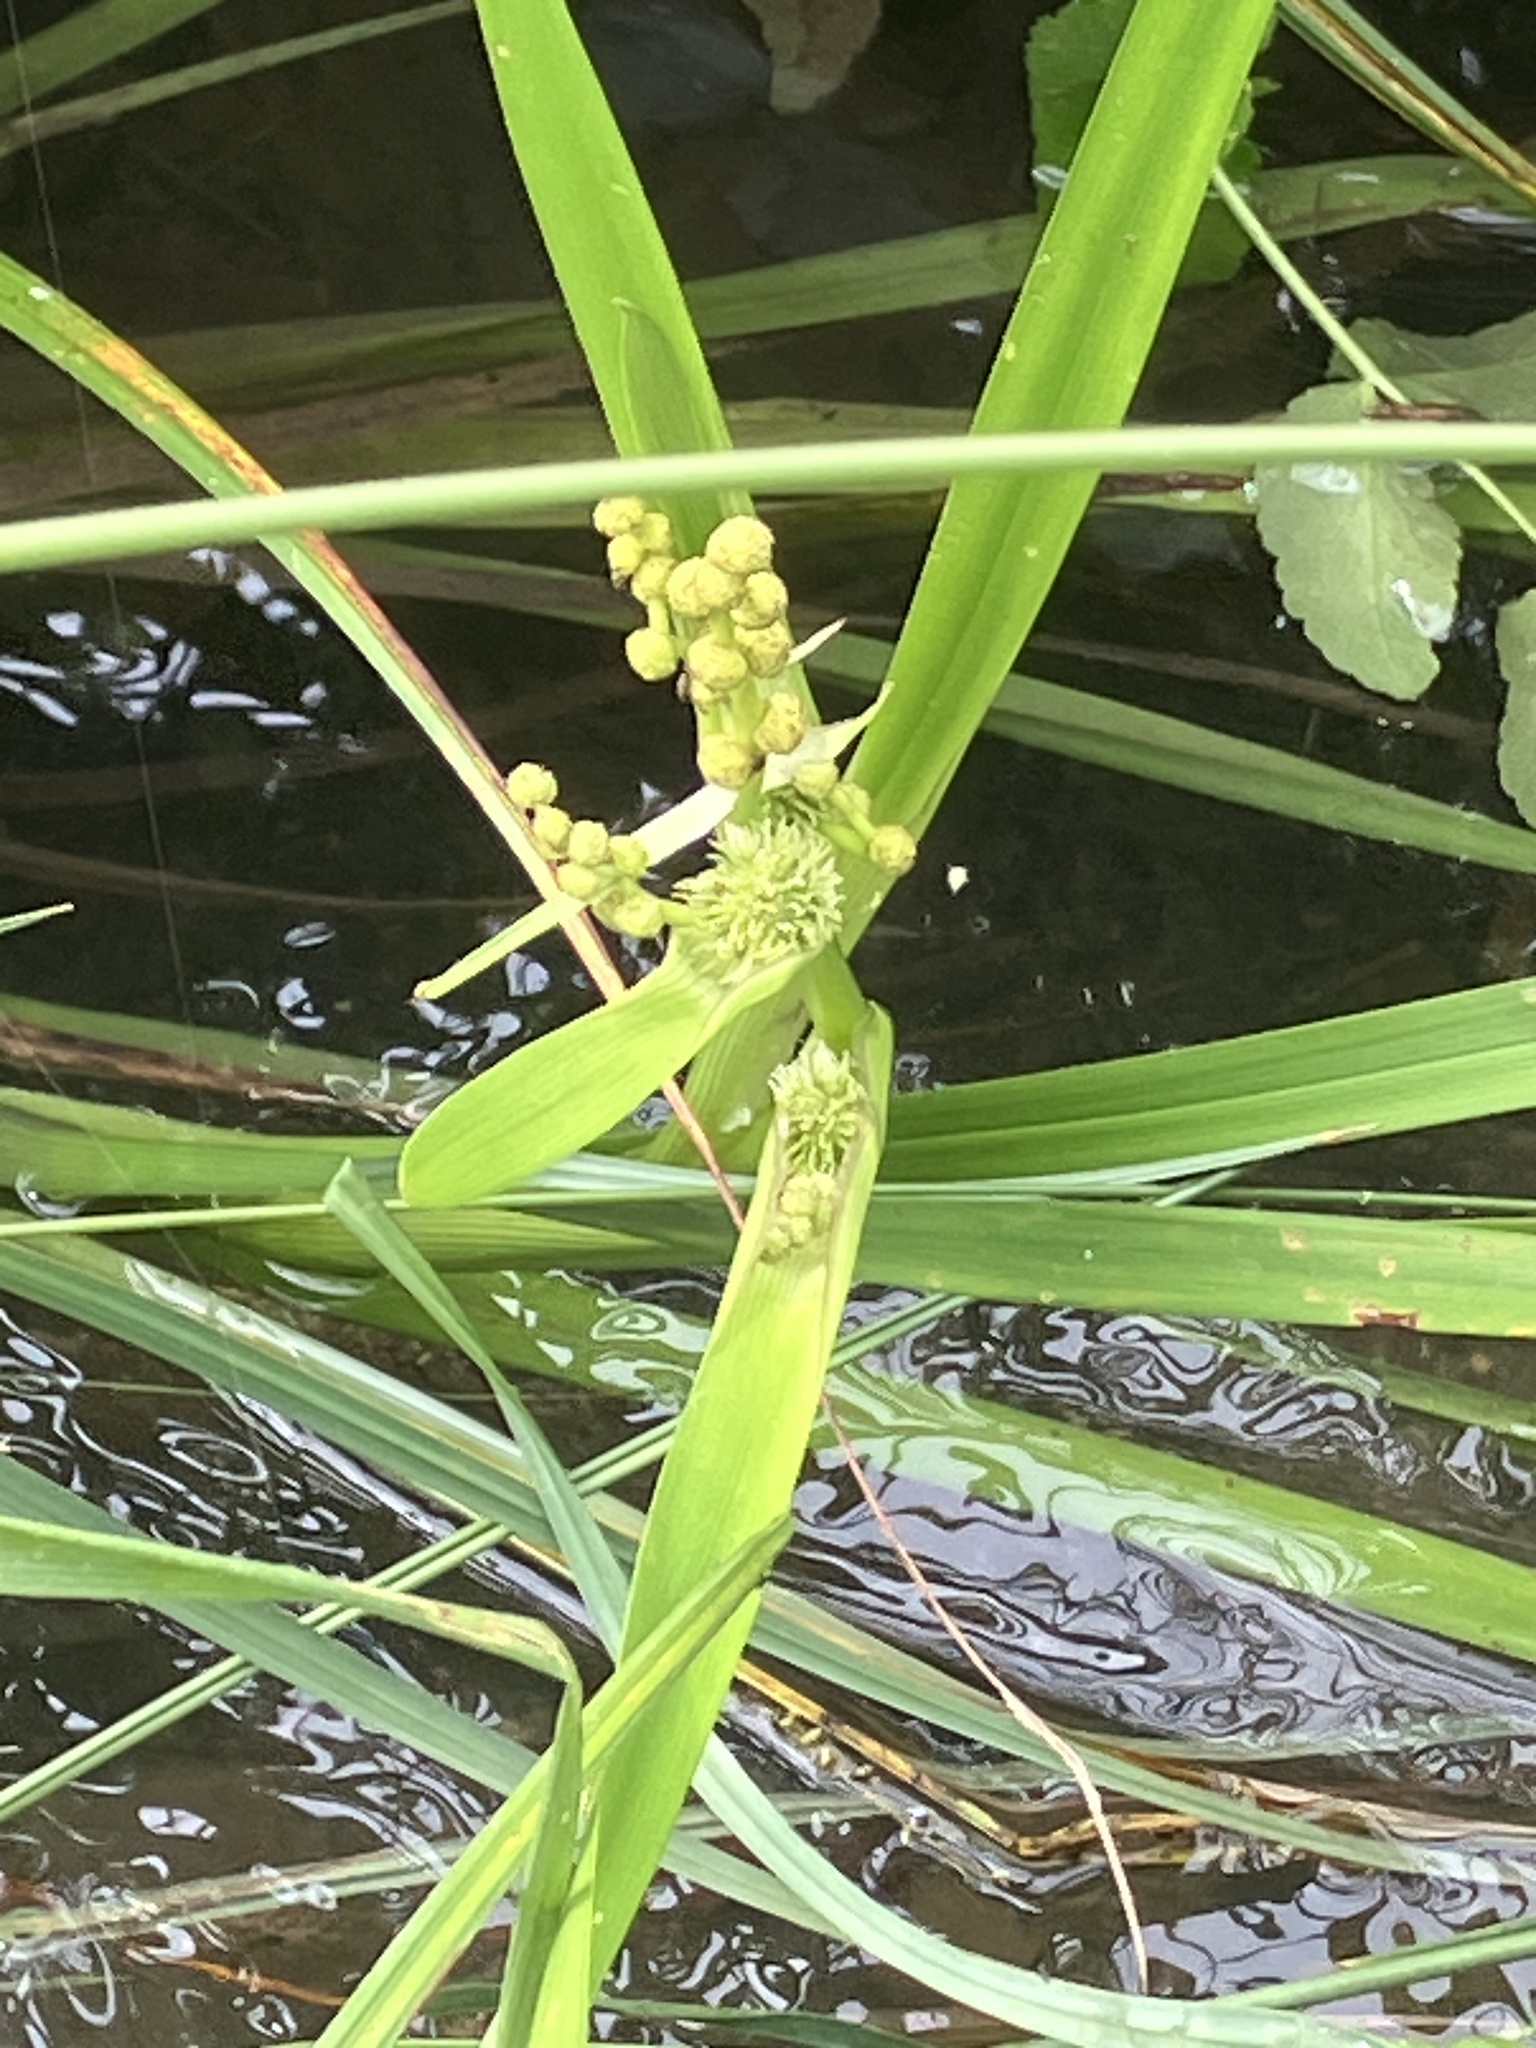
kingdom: Plantae
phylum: Tracheophyta
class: Liliopsida
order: Poales
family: Typhaceae
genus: Sparganium
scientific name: Sparganium erectum
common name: Branched bur-reed
